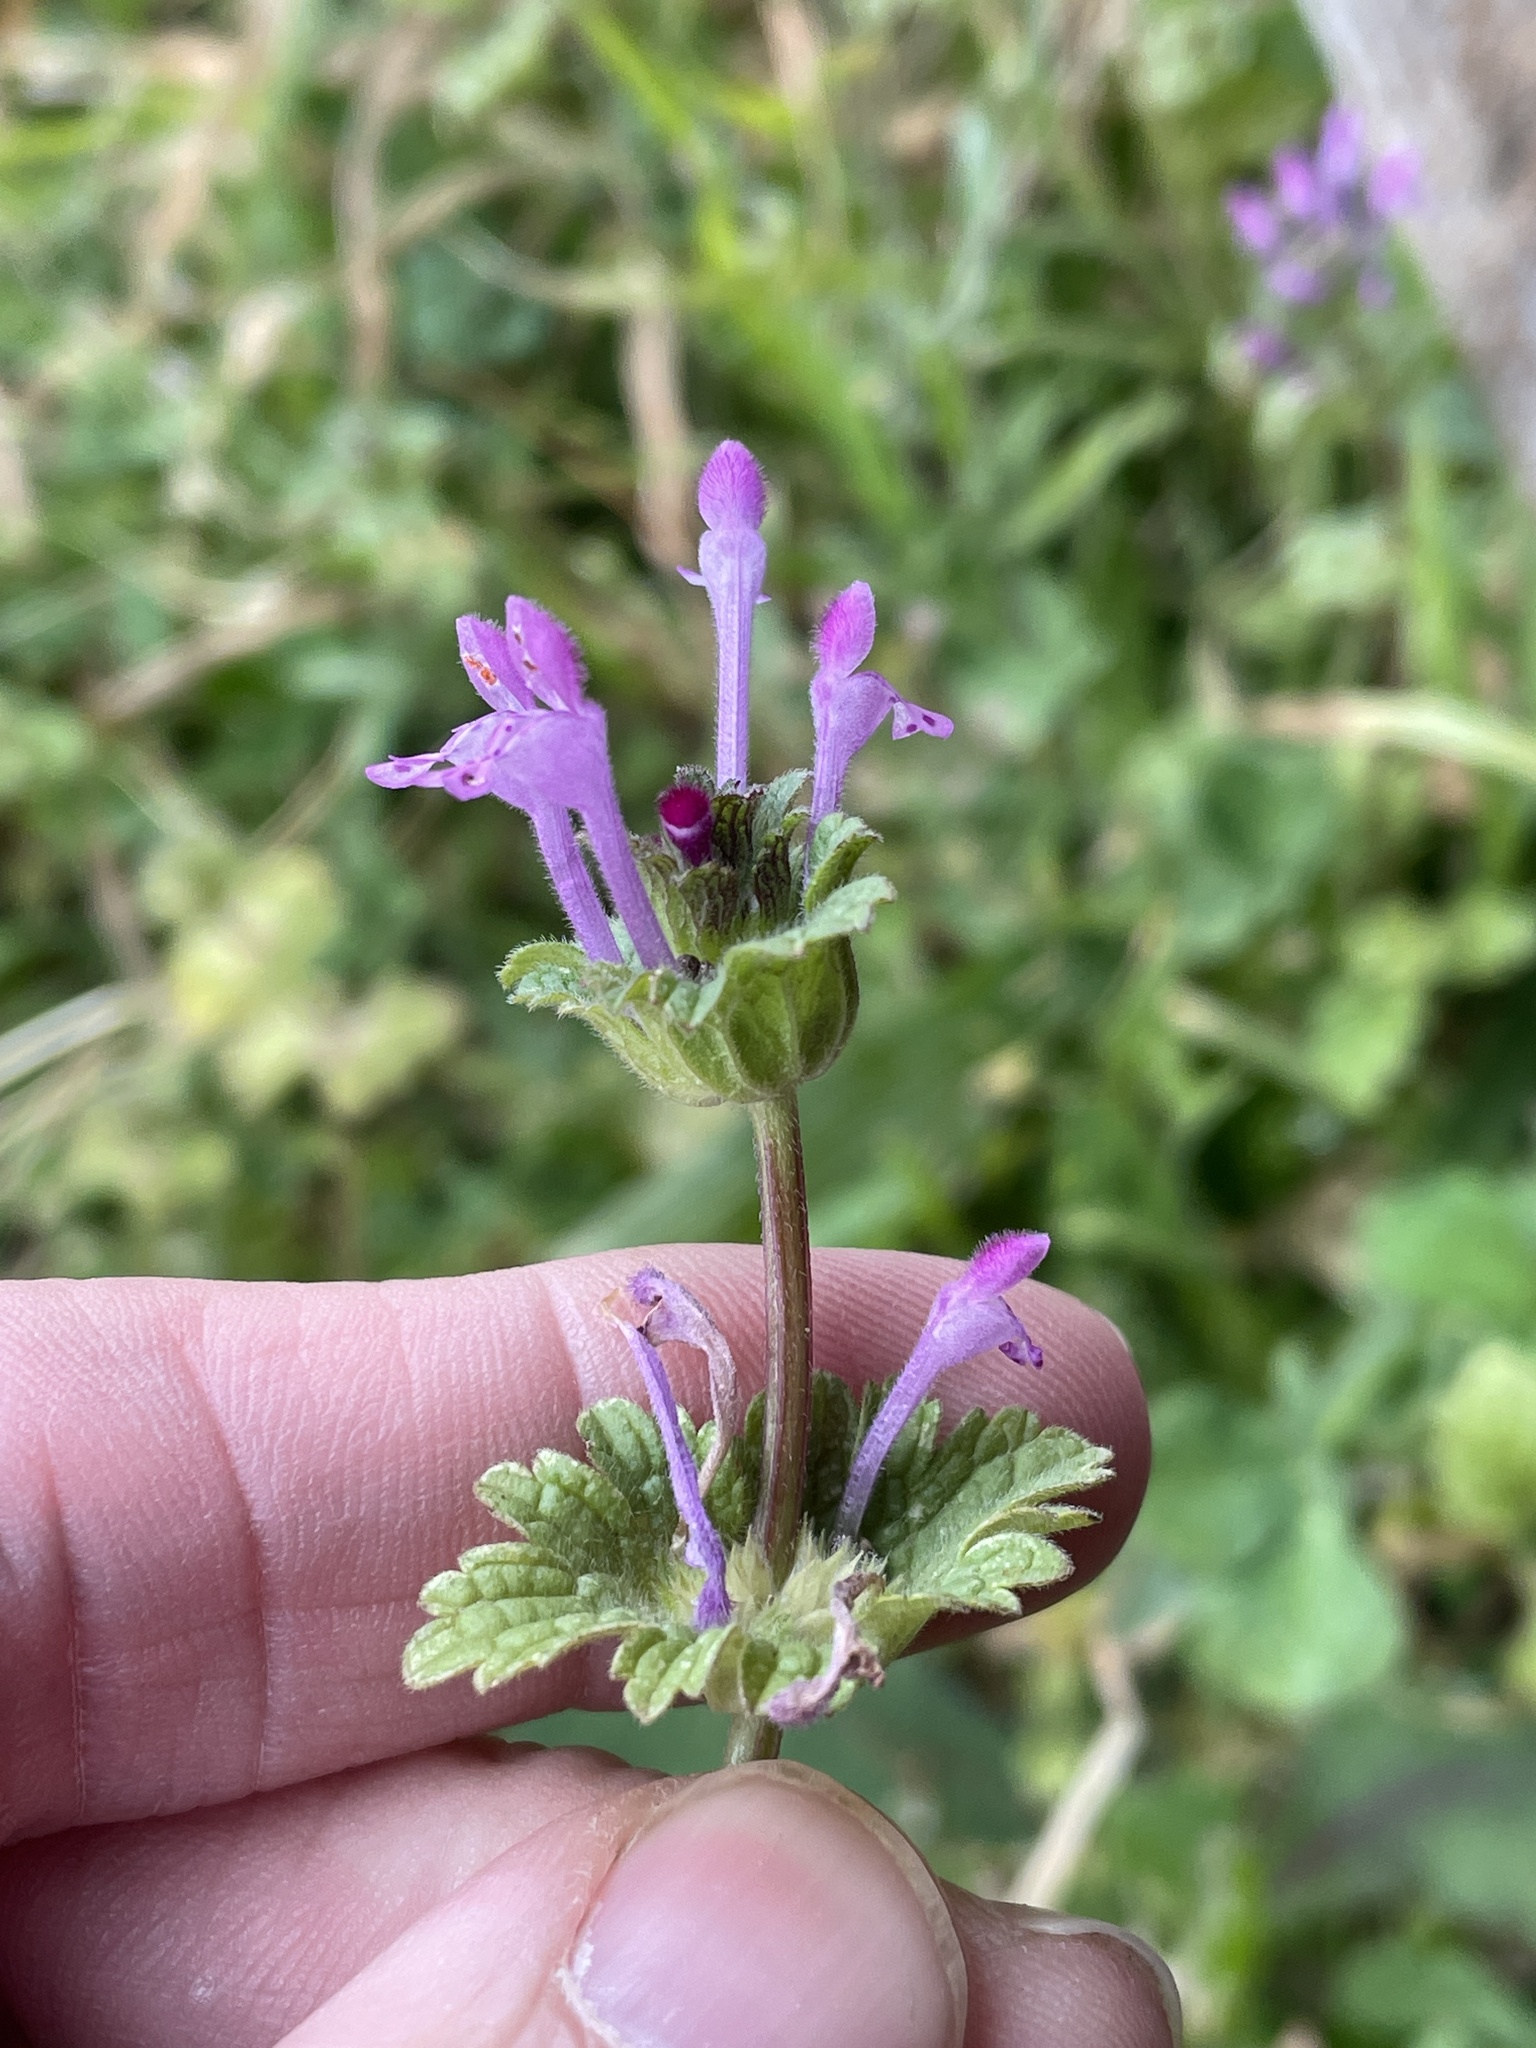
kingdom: Plantae
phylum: Tracheophyta
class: Magnoliopsida
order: Lamiales
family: Lamiaceae
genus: Lamium
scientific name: Lamium amplexicaule
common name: Henbit dead-nettle
